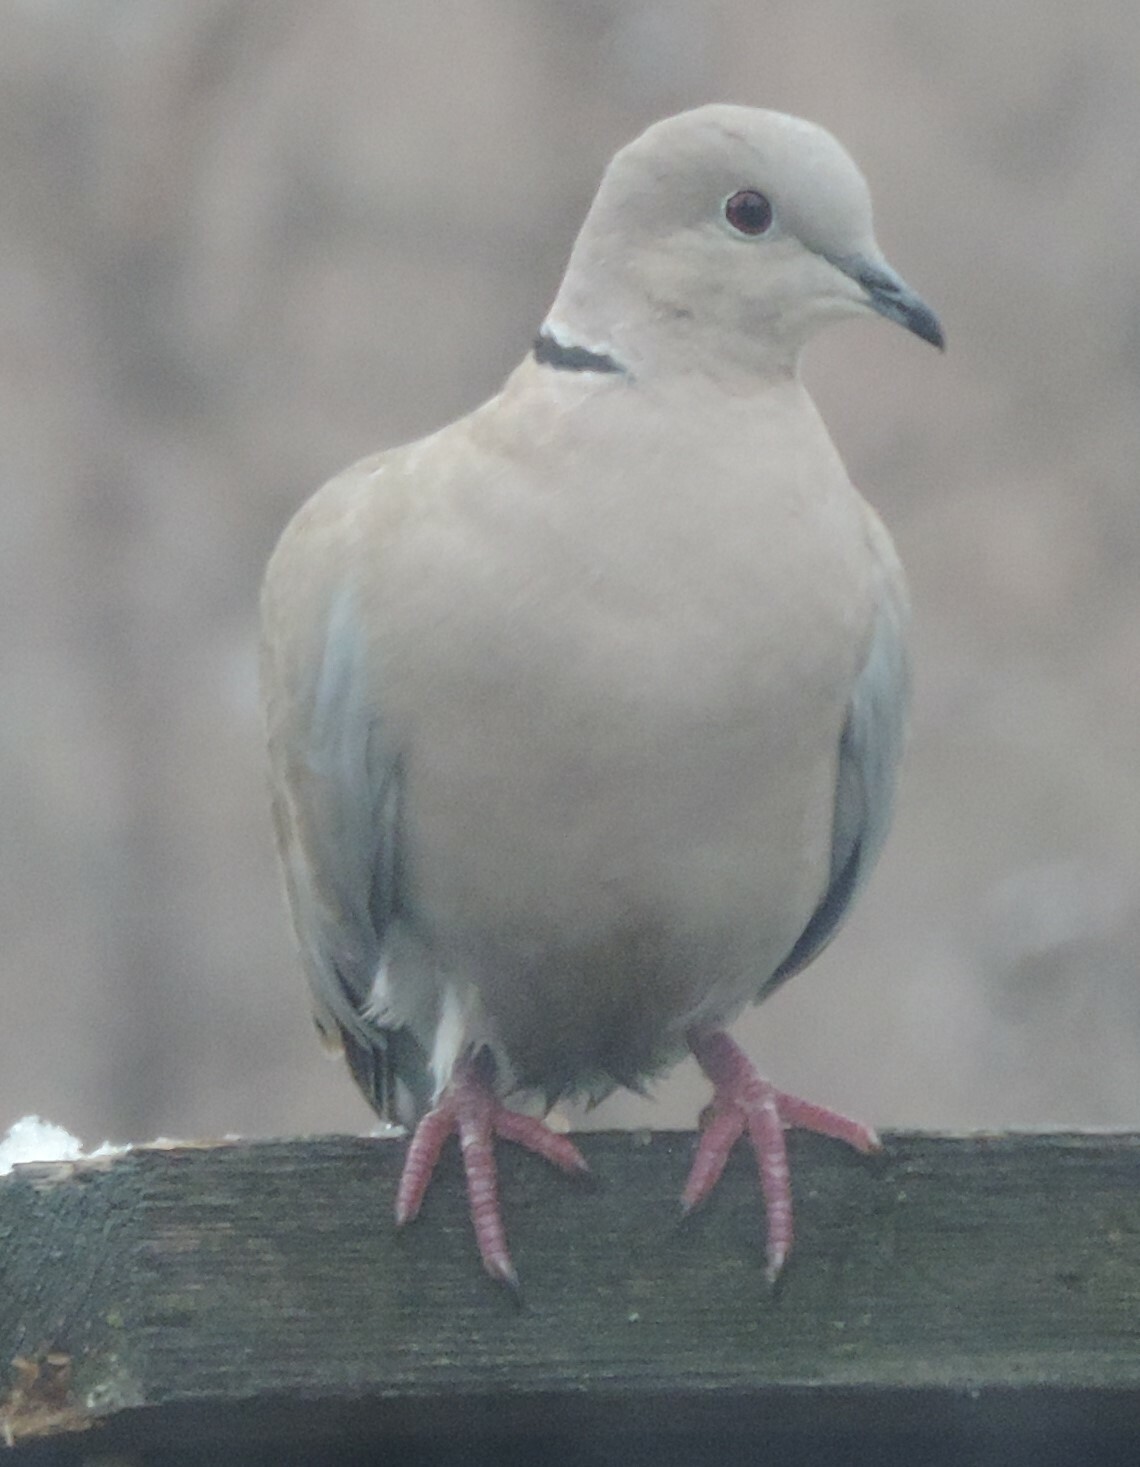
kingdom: Animalia
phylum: Chordata
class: Aves
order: Columbiformes
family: Columbidae
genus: Streptopelia
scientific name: Streptopelia decaocto
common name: Eurasian collared dove
